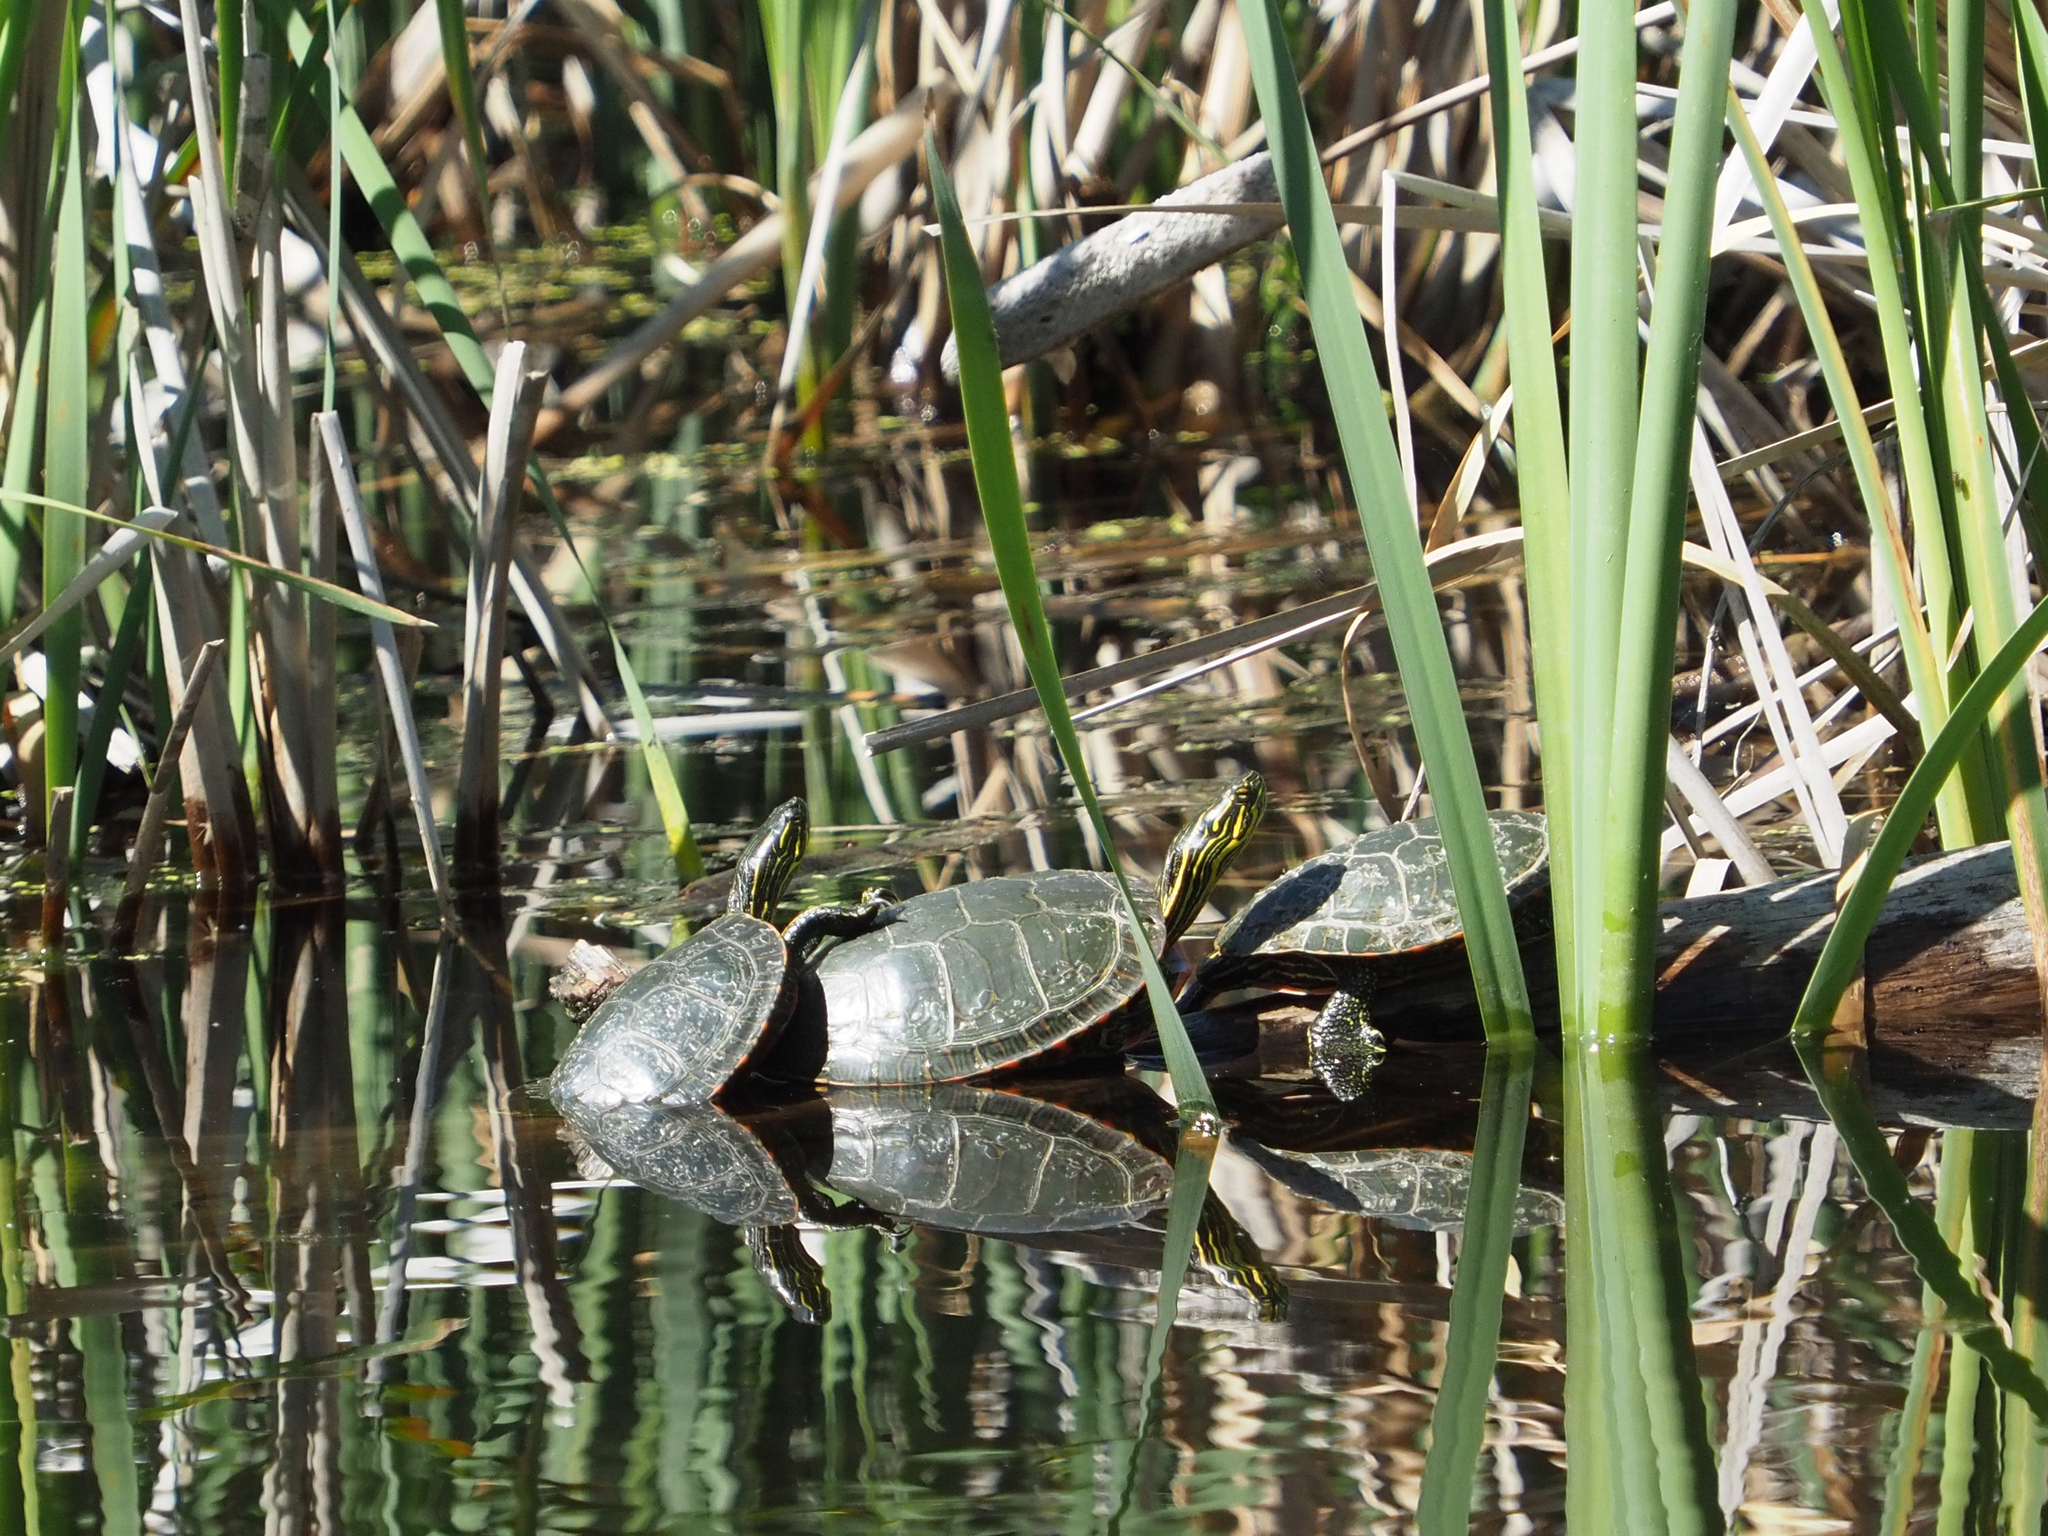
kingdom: Animalia
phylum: Chordata
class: Testudines
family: Emydidae
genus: Chrysemys
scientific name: Chrysemys picta
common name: Painted turtle
